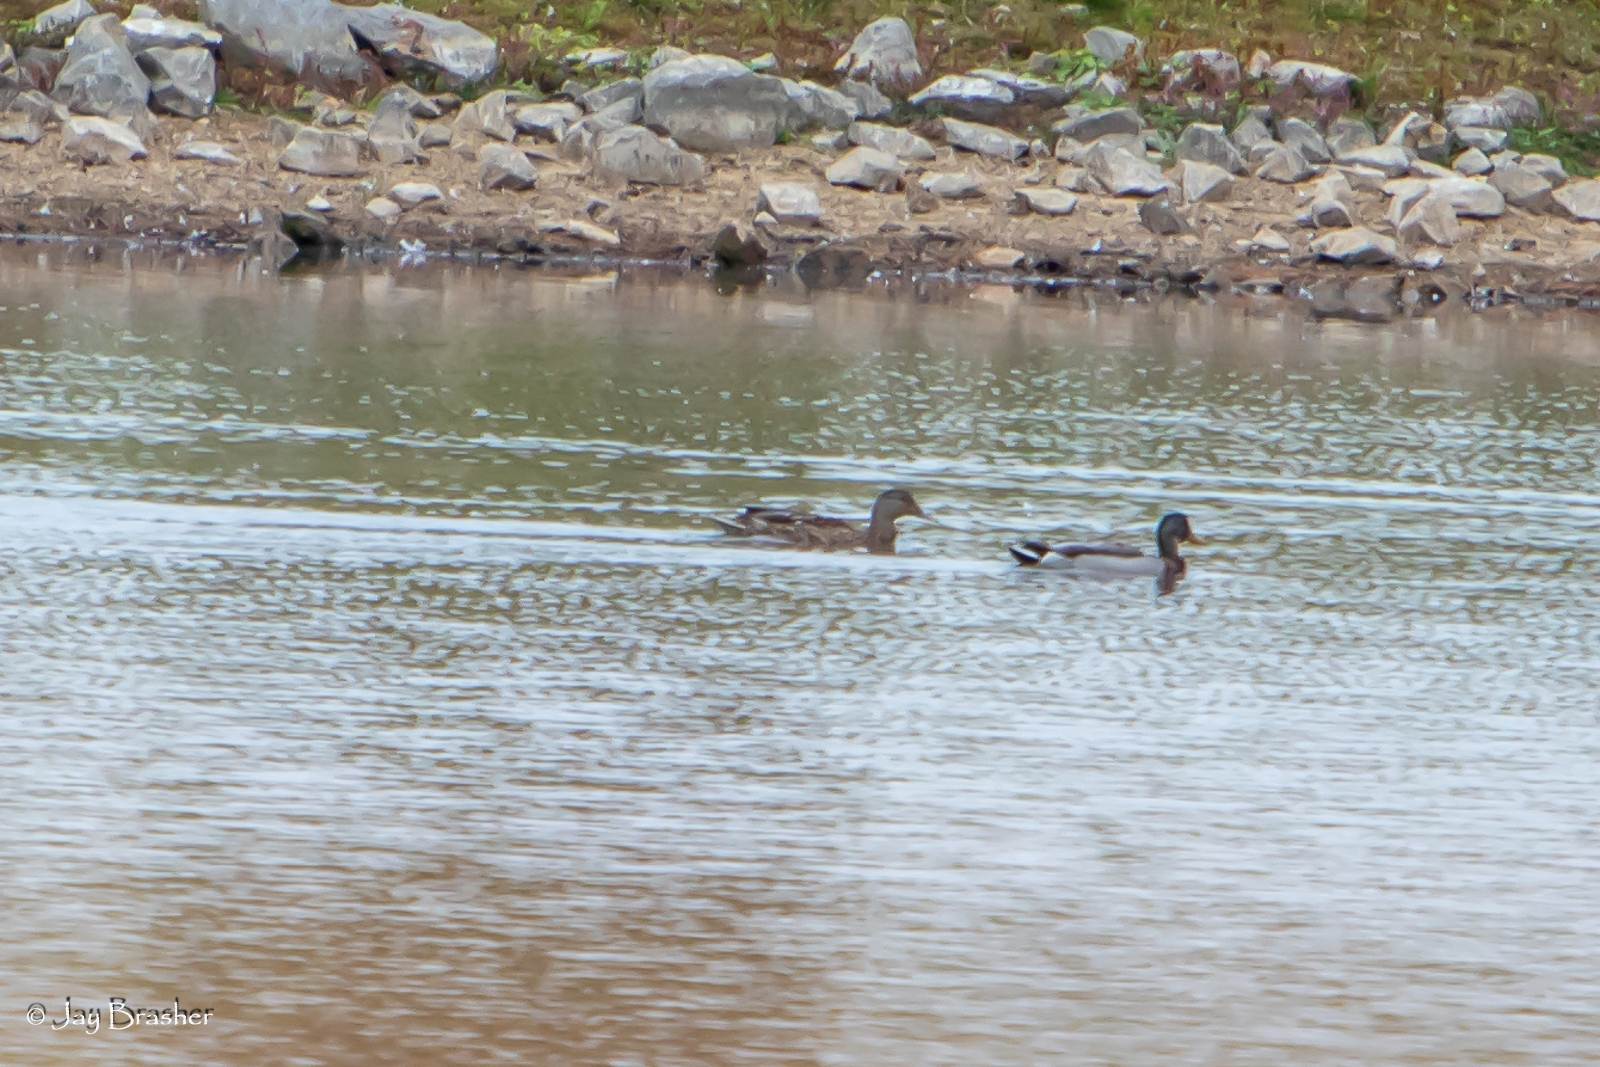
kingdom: Animalia
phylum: Chordata
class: Aves
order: Anseriformes
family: Anatidae
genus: Anas
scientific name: Anas platyrhynchos
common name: Mallard
